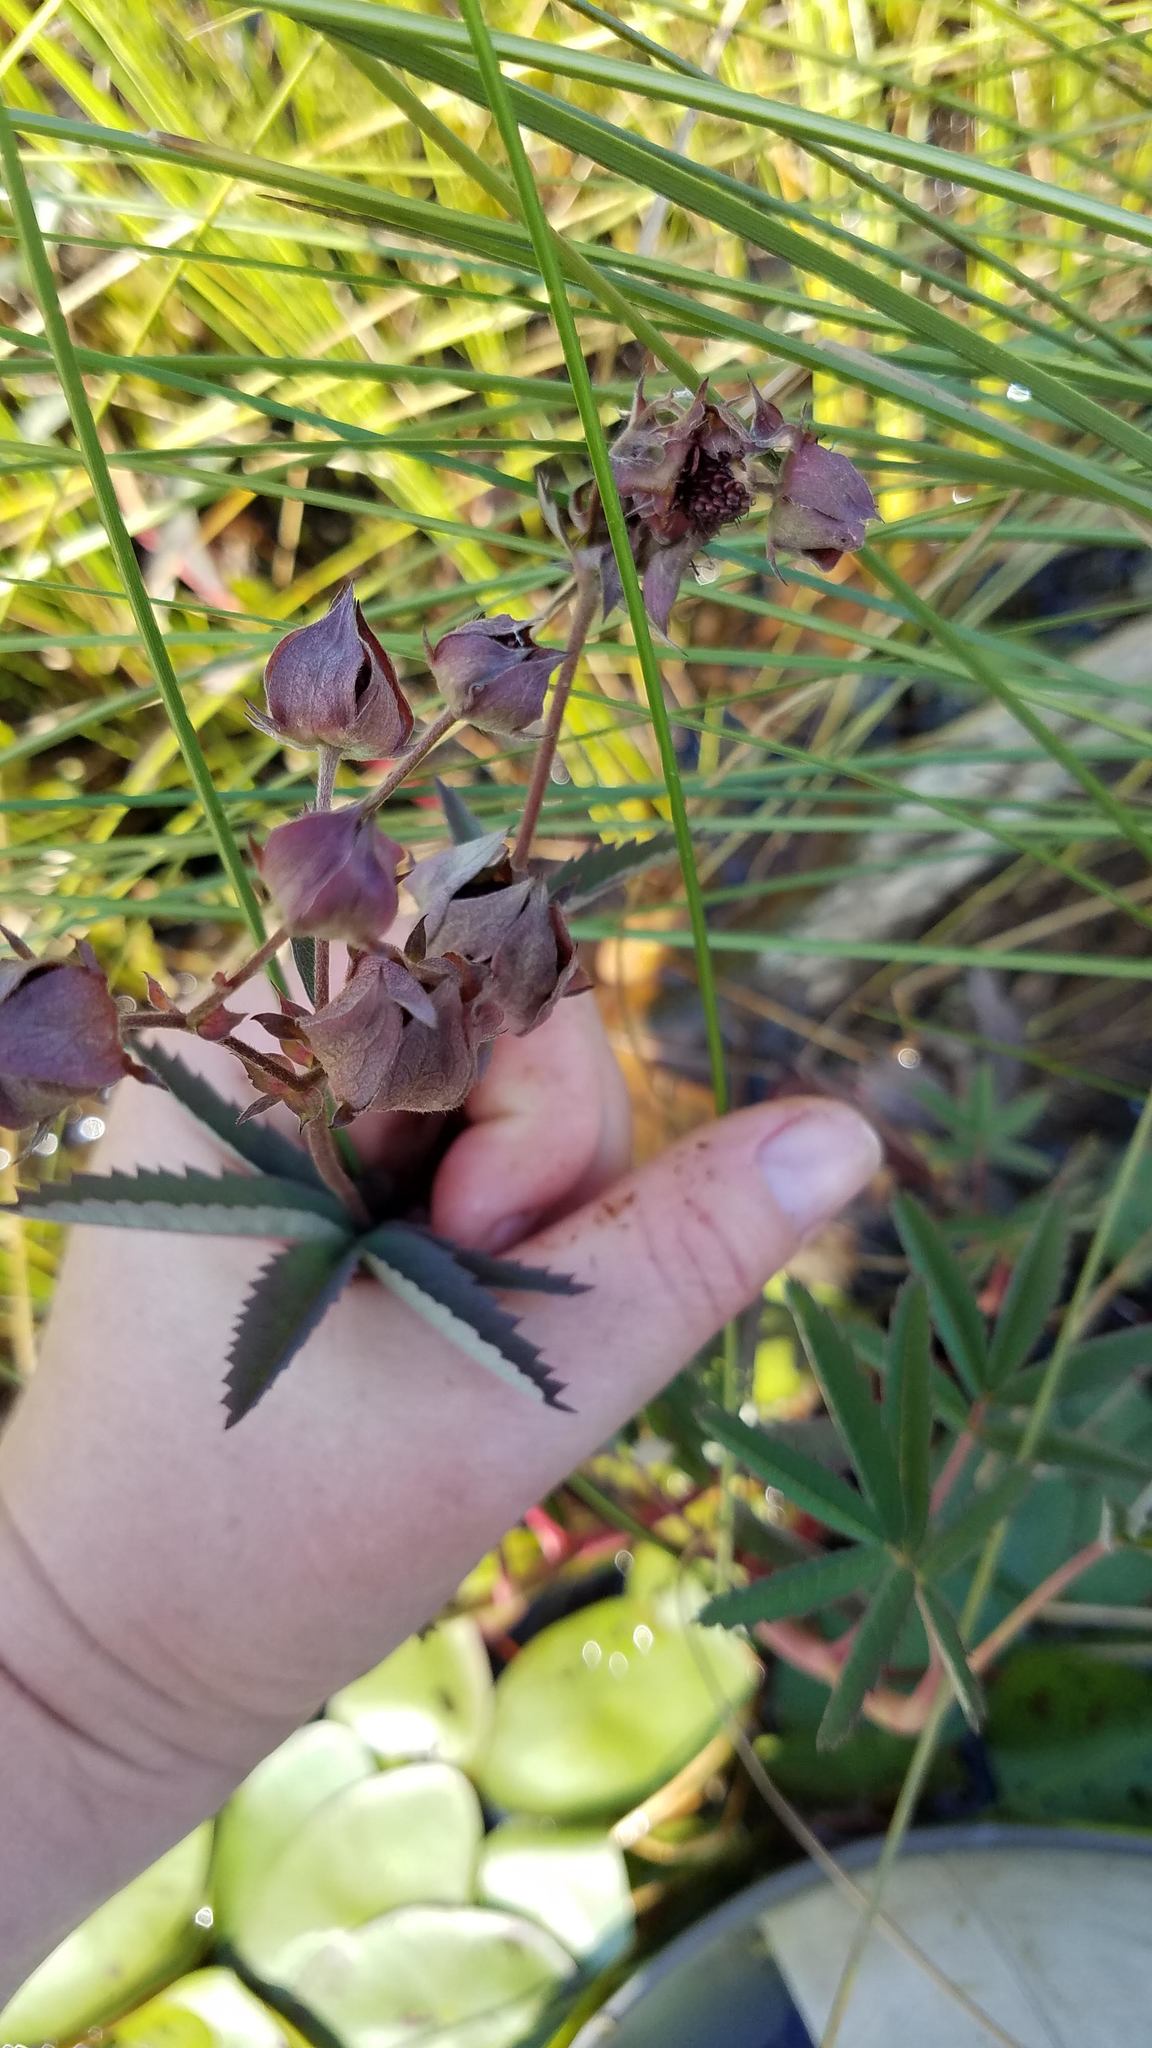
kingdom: Plantae
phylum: Tracheophyta
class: Magnoliopsida
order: Rosales
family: Rosaceae
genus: Comarum
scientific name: Comarum palustre
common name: Marsh cinquefoil
